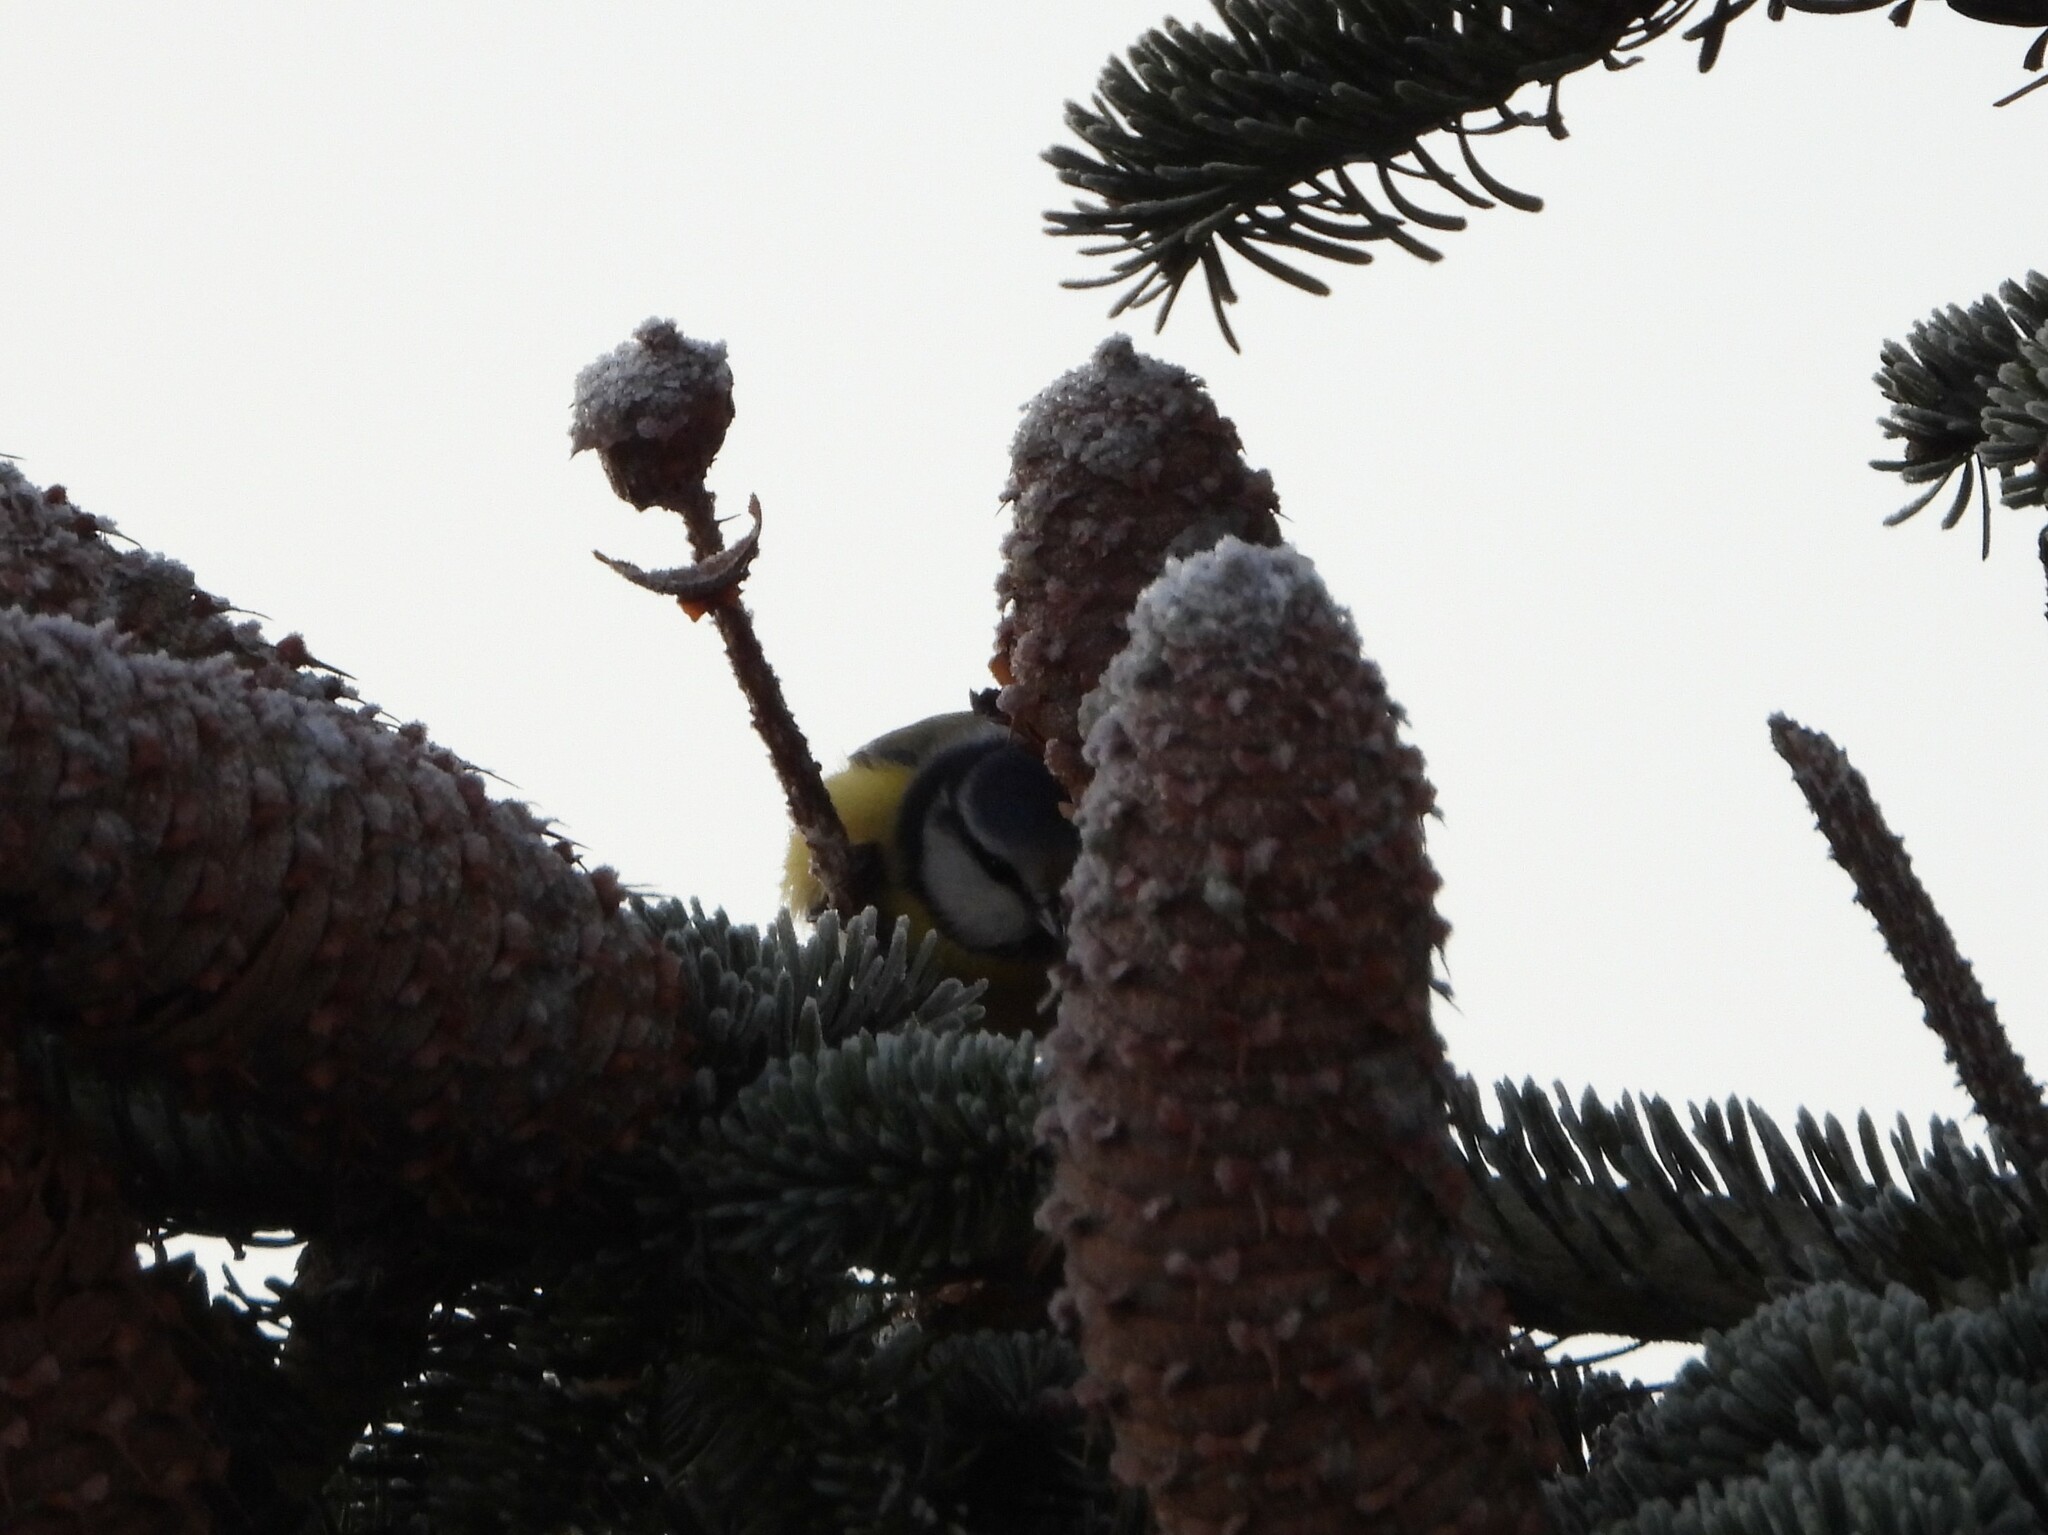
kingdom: Animalia
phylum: Chordata
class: Aves
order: Passeriformes
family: Paridae
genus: Cyanistes
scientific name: Cyanistes caeruleus
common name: Eurasian blue tit
